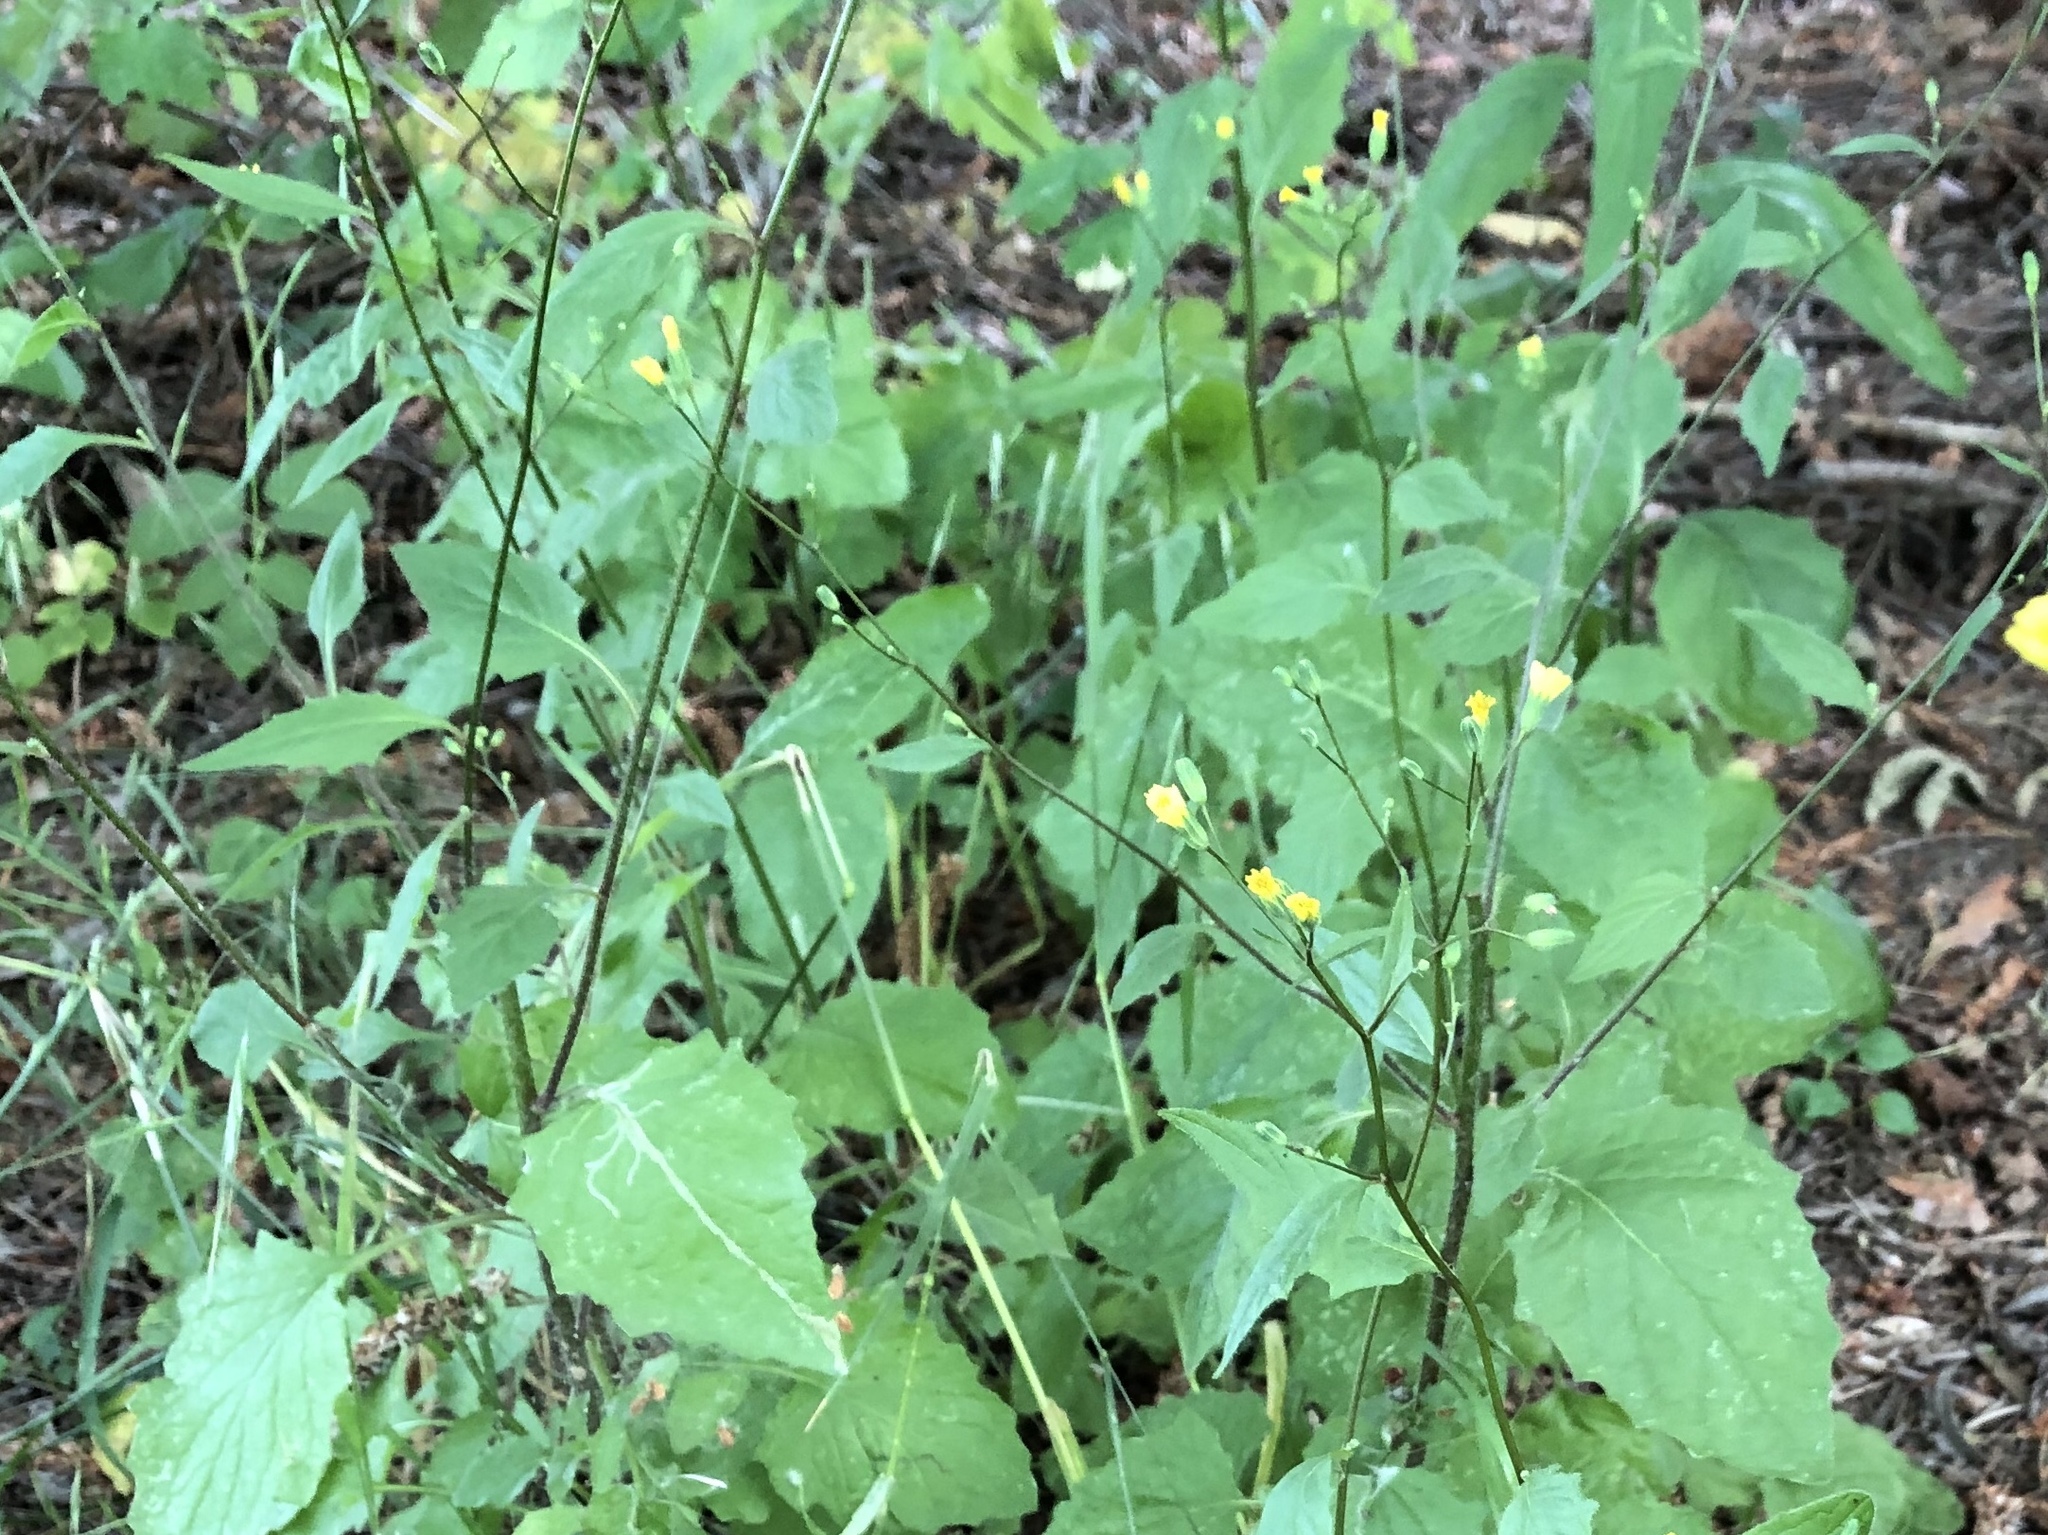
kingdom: Plantae
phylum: Tracheophyta
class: Magnoliopsida
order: Asterales
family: Asteraceae
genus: Lapsana
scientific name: Lapsana communis
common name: Nipplewort
